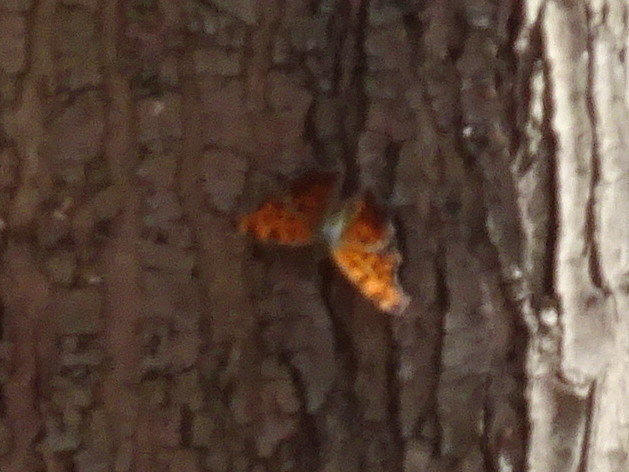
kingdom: Animalia
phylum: Arthropoda
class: Insecta
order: Lepidoptera
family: Nymphalidae
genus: Polygonia
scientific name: Polygonia comma
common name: Eastern comma
